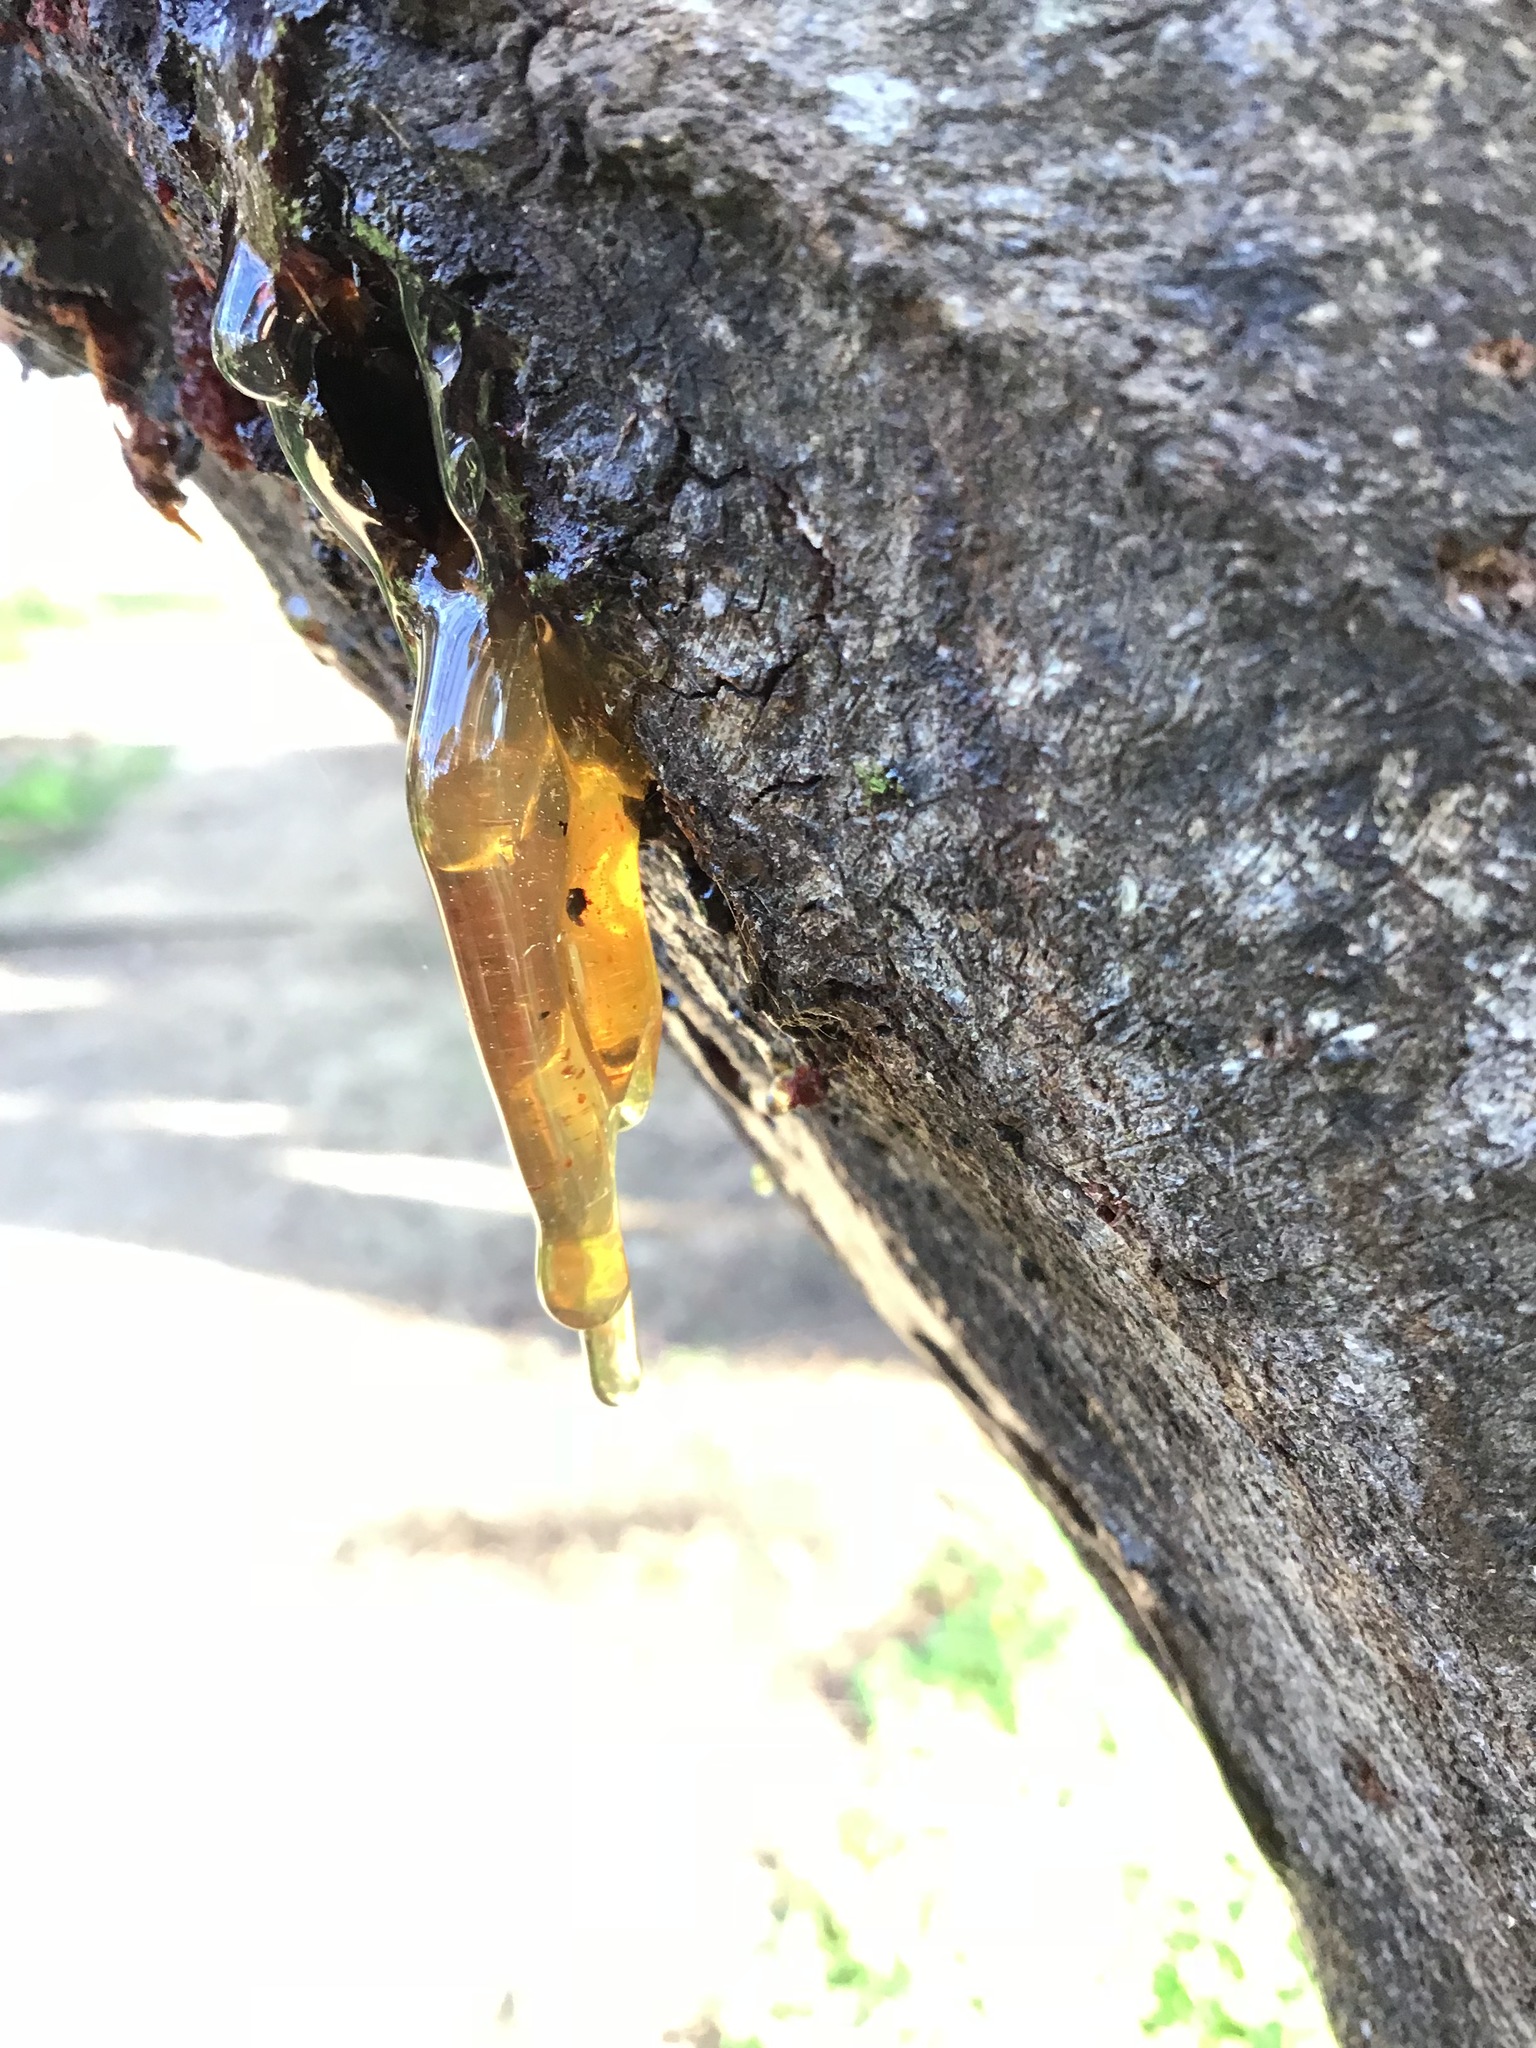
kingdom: Plantae
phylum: Tracheophyta
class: Magnoliopsida
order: Fabales
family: Fabaceae
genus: Acacia
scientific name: Acacia dealbata
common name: Silver wattle
